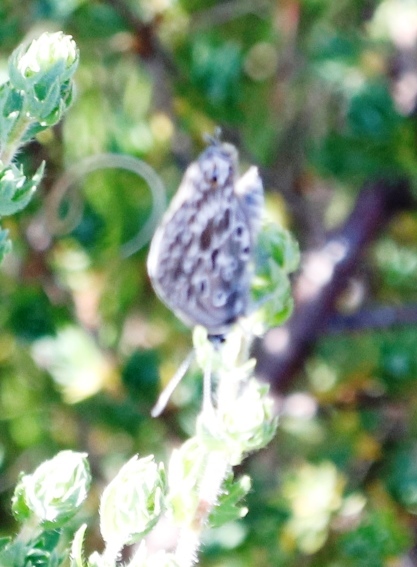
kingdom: Animalia
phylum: Arthropoda
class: Insecta
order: Lepidoptera
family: Lycaenidae
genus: Lepidochrysops
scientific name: Lepidochrysops trimeni
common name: Trimen's blue
